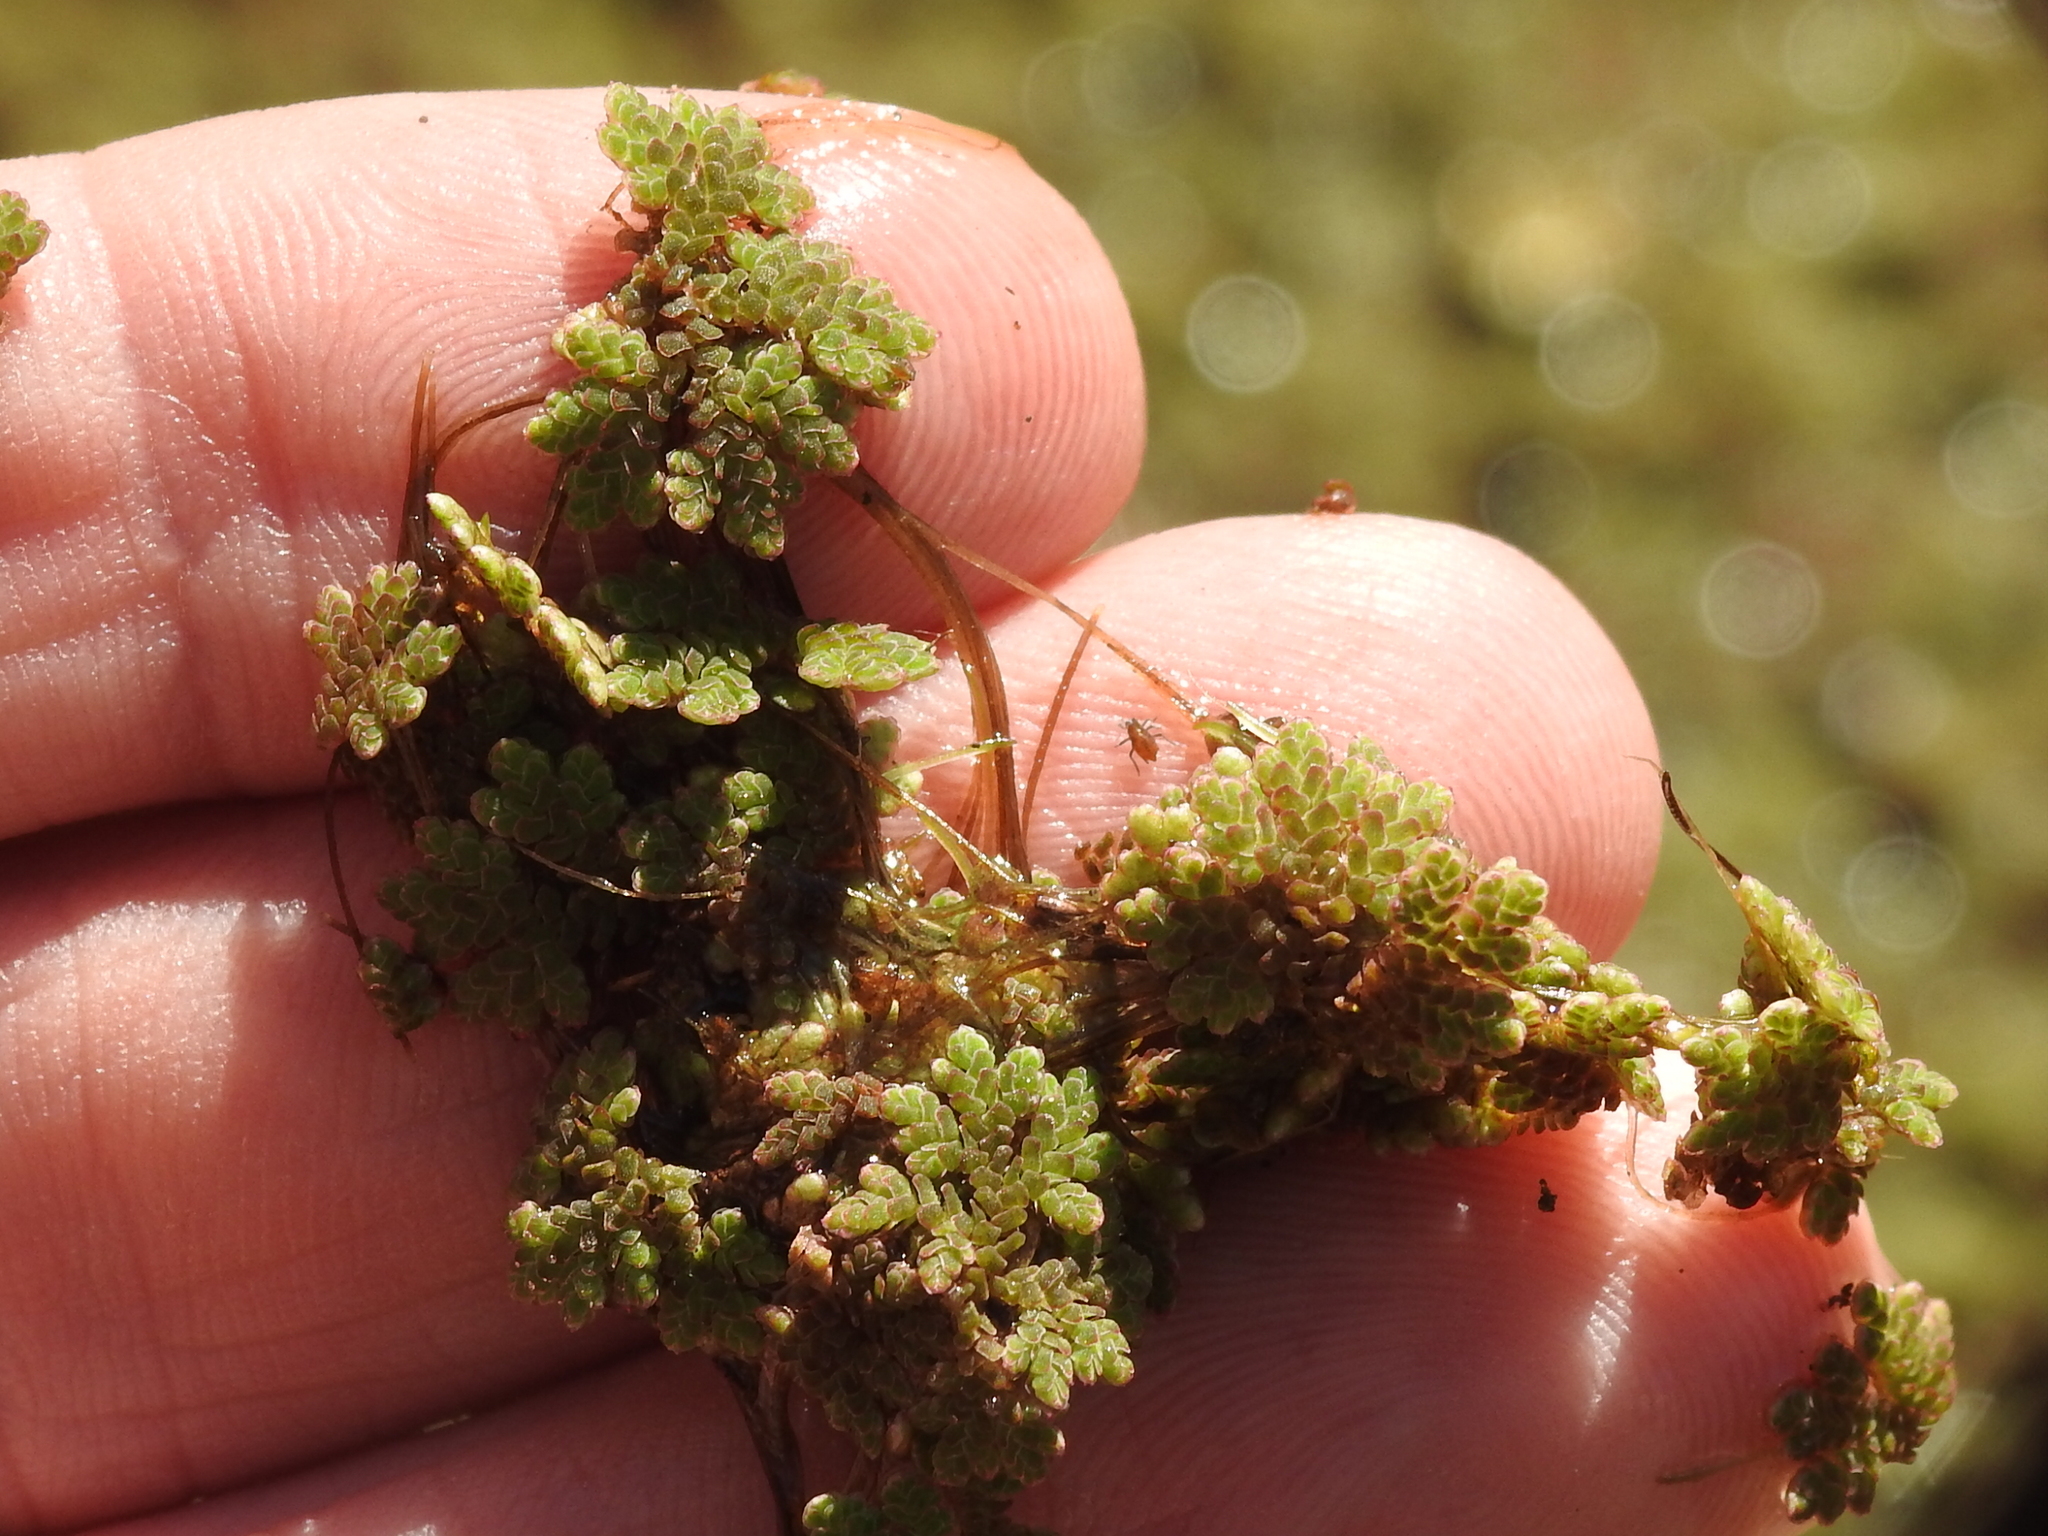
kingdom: Plantae
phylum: Tracheophyta
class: Polypodiopsida
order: Salviniales
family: Salviniaceae
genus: Azolla
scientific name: Azolla caroliniana
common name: Carolina mosquitofern
